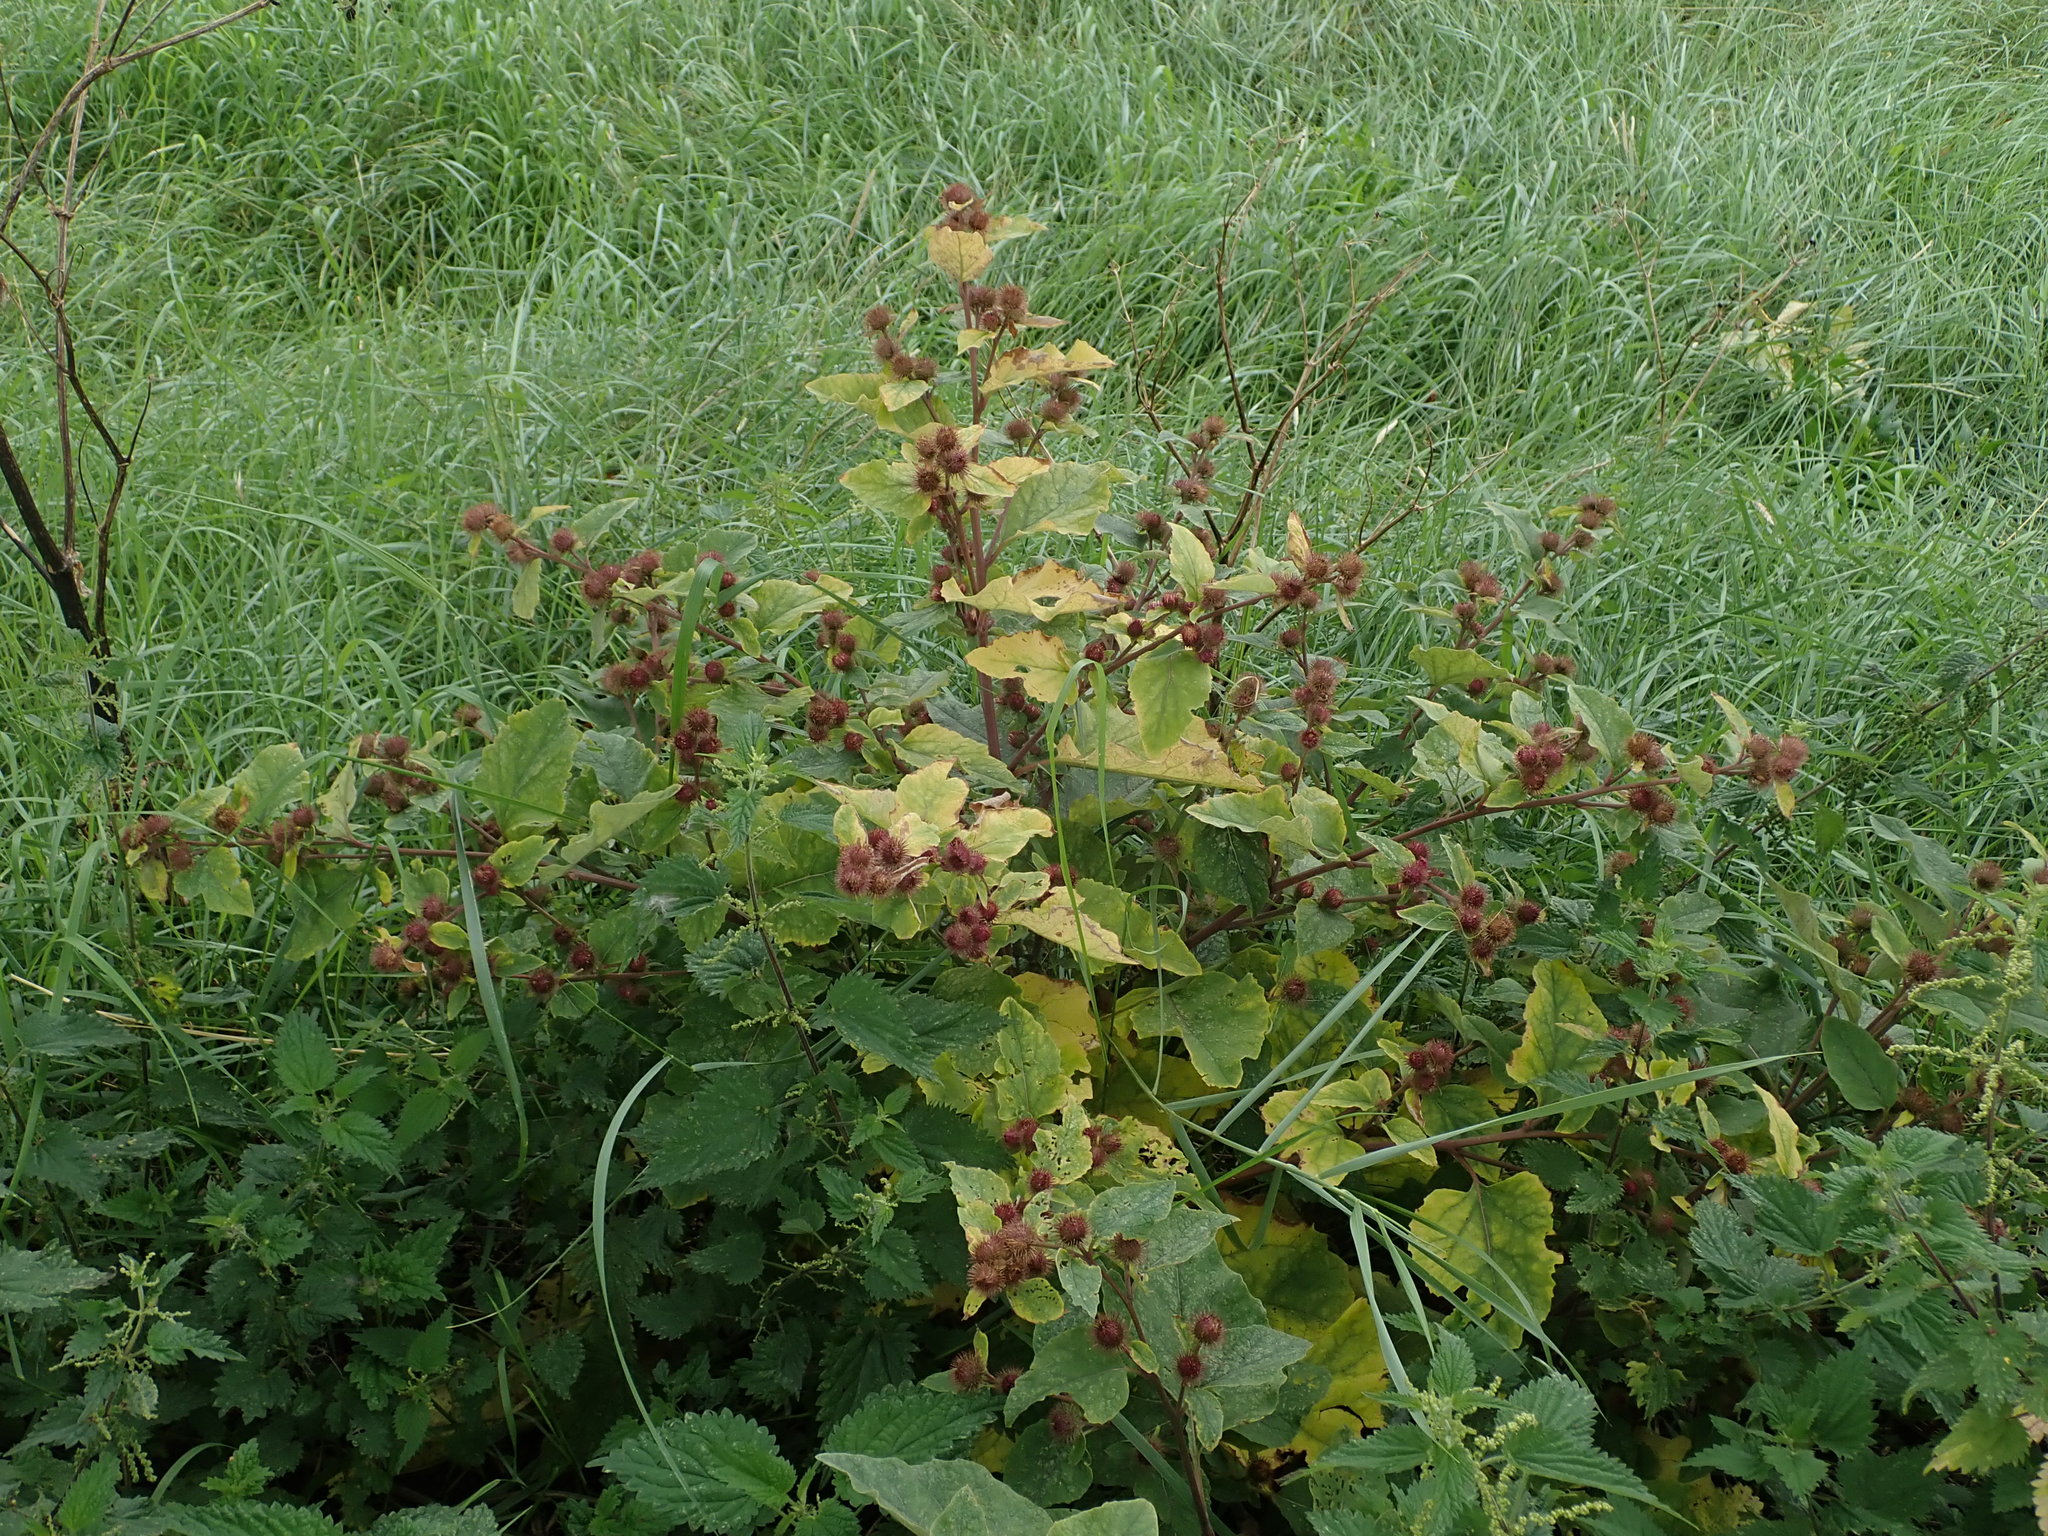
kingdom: Plantae
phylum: Tracheophyta
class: Magnoliopsida
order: Asterales
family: Asteraceae
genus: Arctium
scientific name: Arctium minus
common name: Lesser burdock
